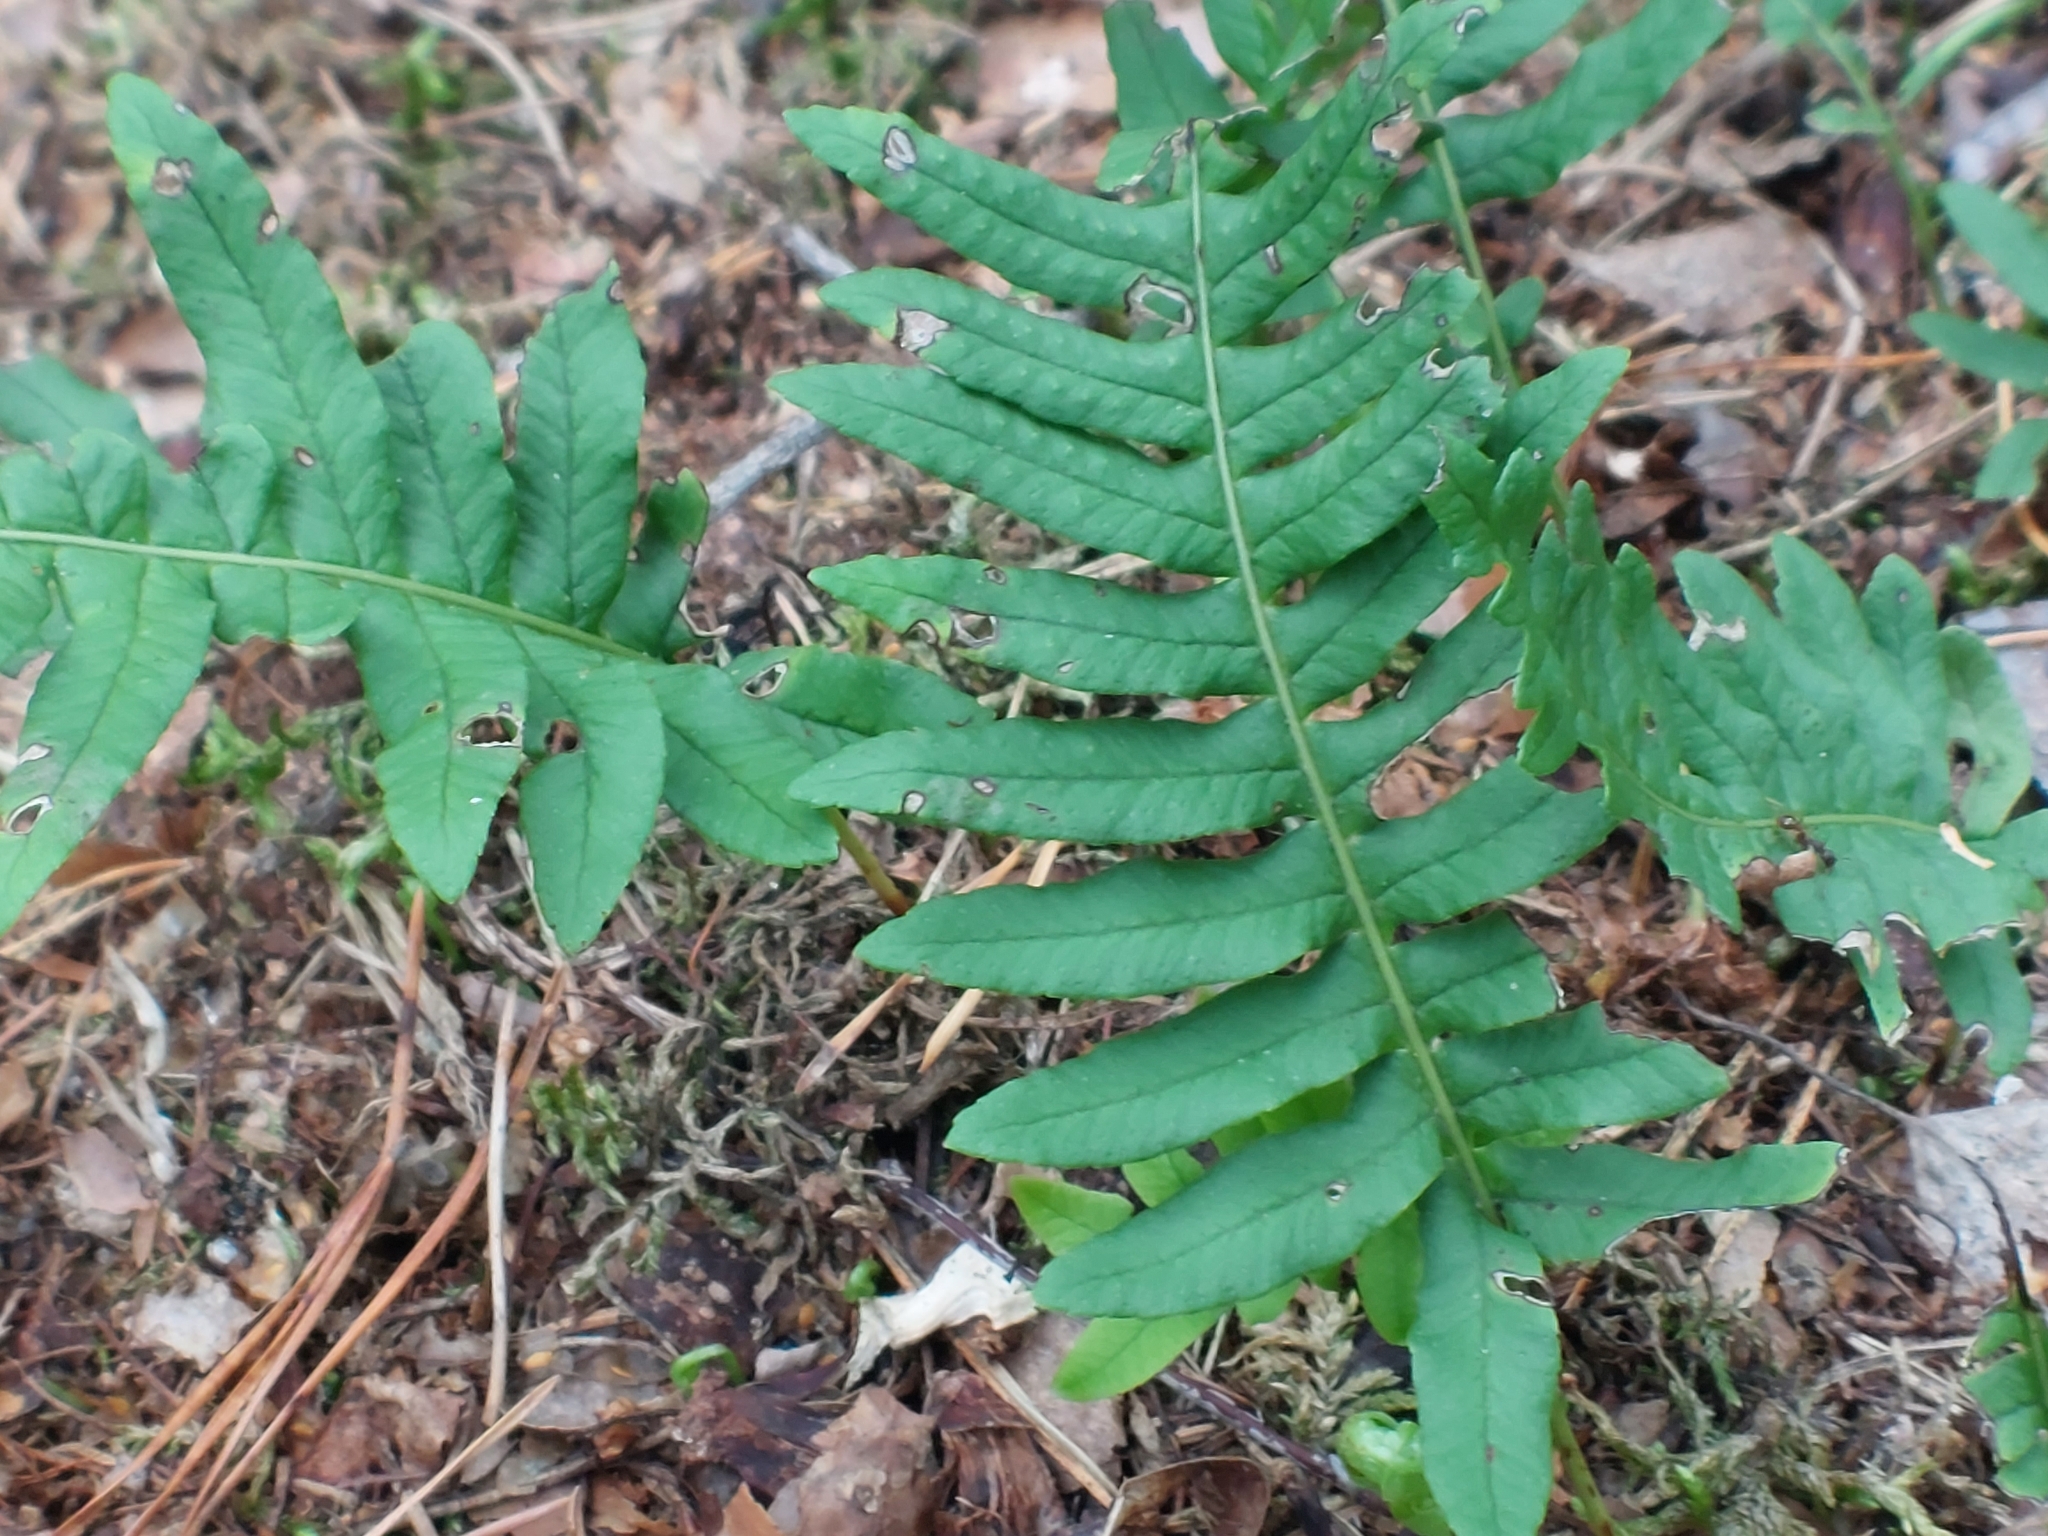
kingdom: Plantae
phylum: Tracheophyta
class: Polypodiopsida
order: Polypodiales
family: Polypodiaceae
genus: Polypodium
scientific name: Polypodium vulgare
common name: Common polypody
